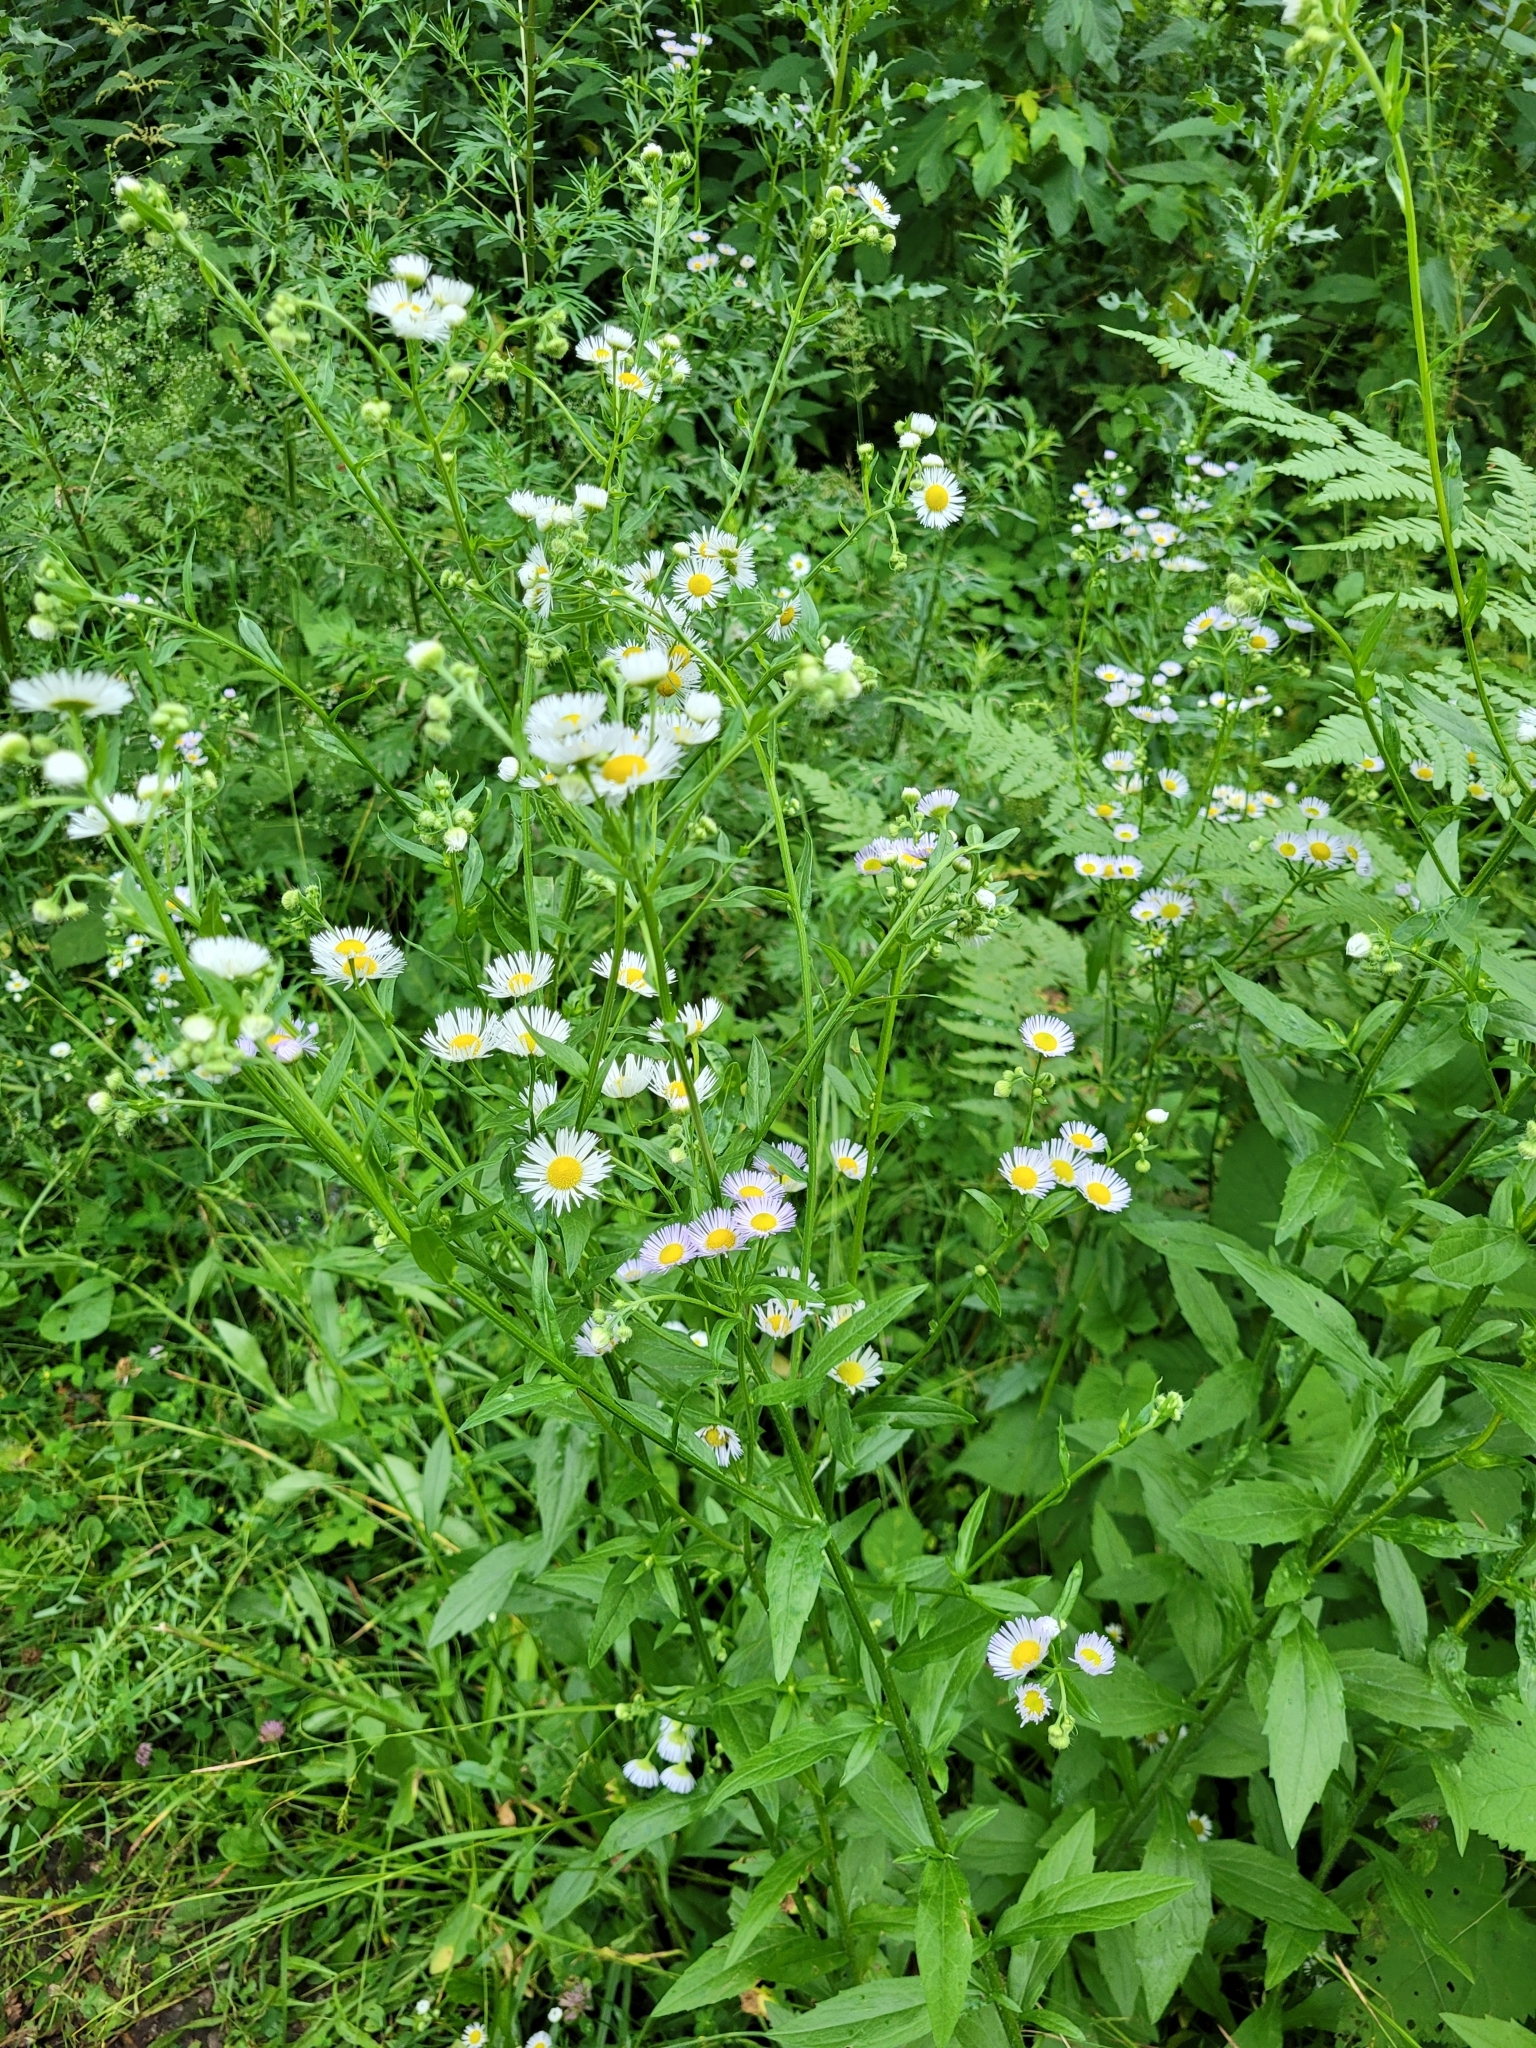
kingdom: Plantae
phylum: Tracheophyta
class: Magnoliopsida
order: Asterales
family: Asteraceae
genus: Erigeron
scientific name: Erigeron annuus
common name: Tall fleabane
